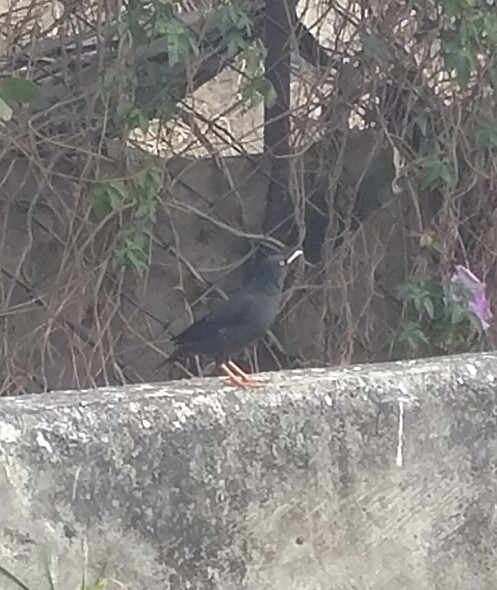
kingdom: Animalia
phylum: Chordata
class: Aves
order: Passeriformes
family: Sturnidae
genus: Acridotheres
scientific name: Acridotheres cristatellus
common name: Crested myna
